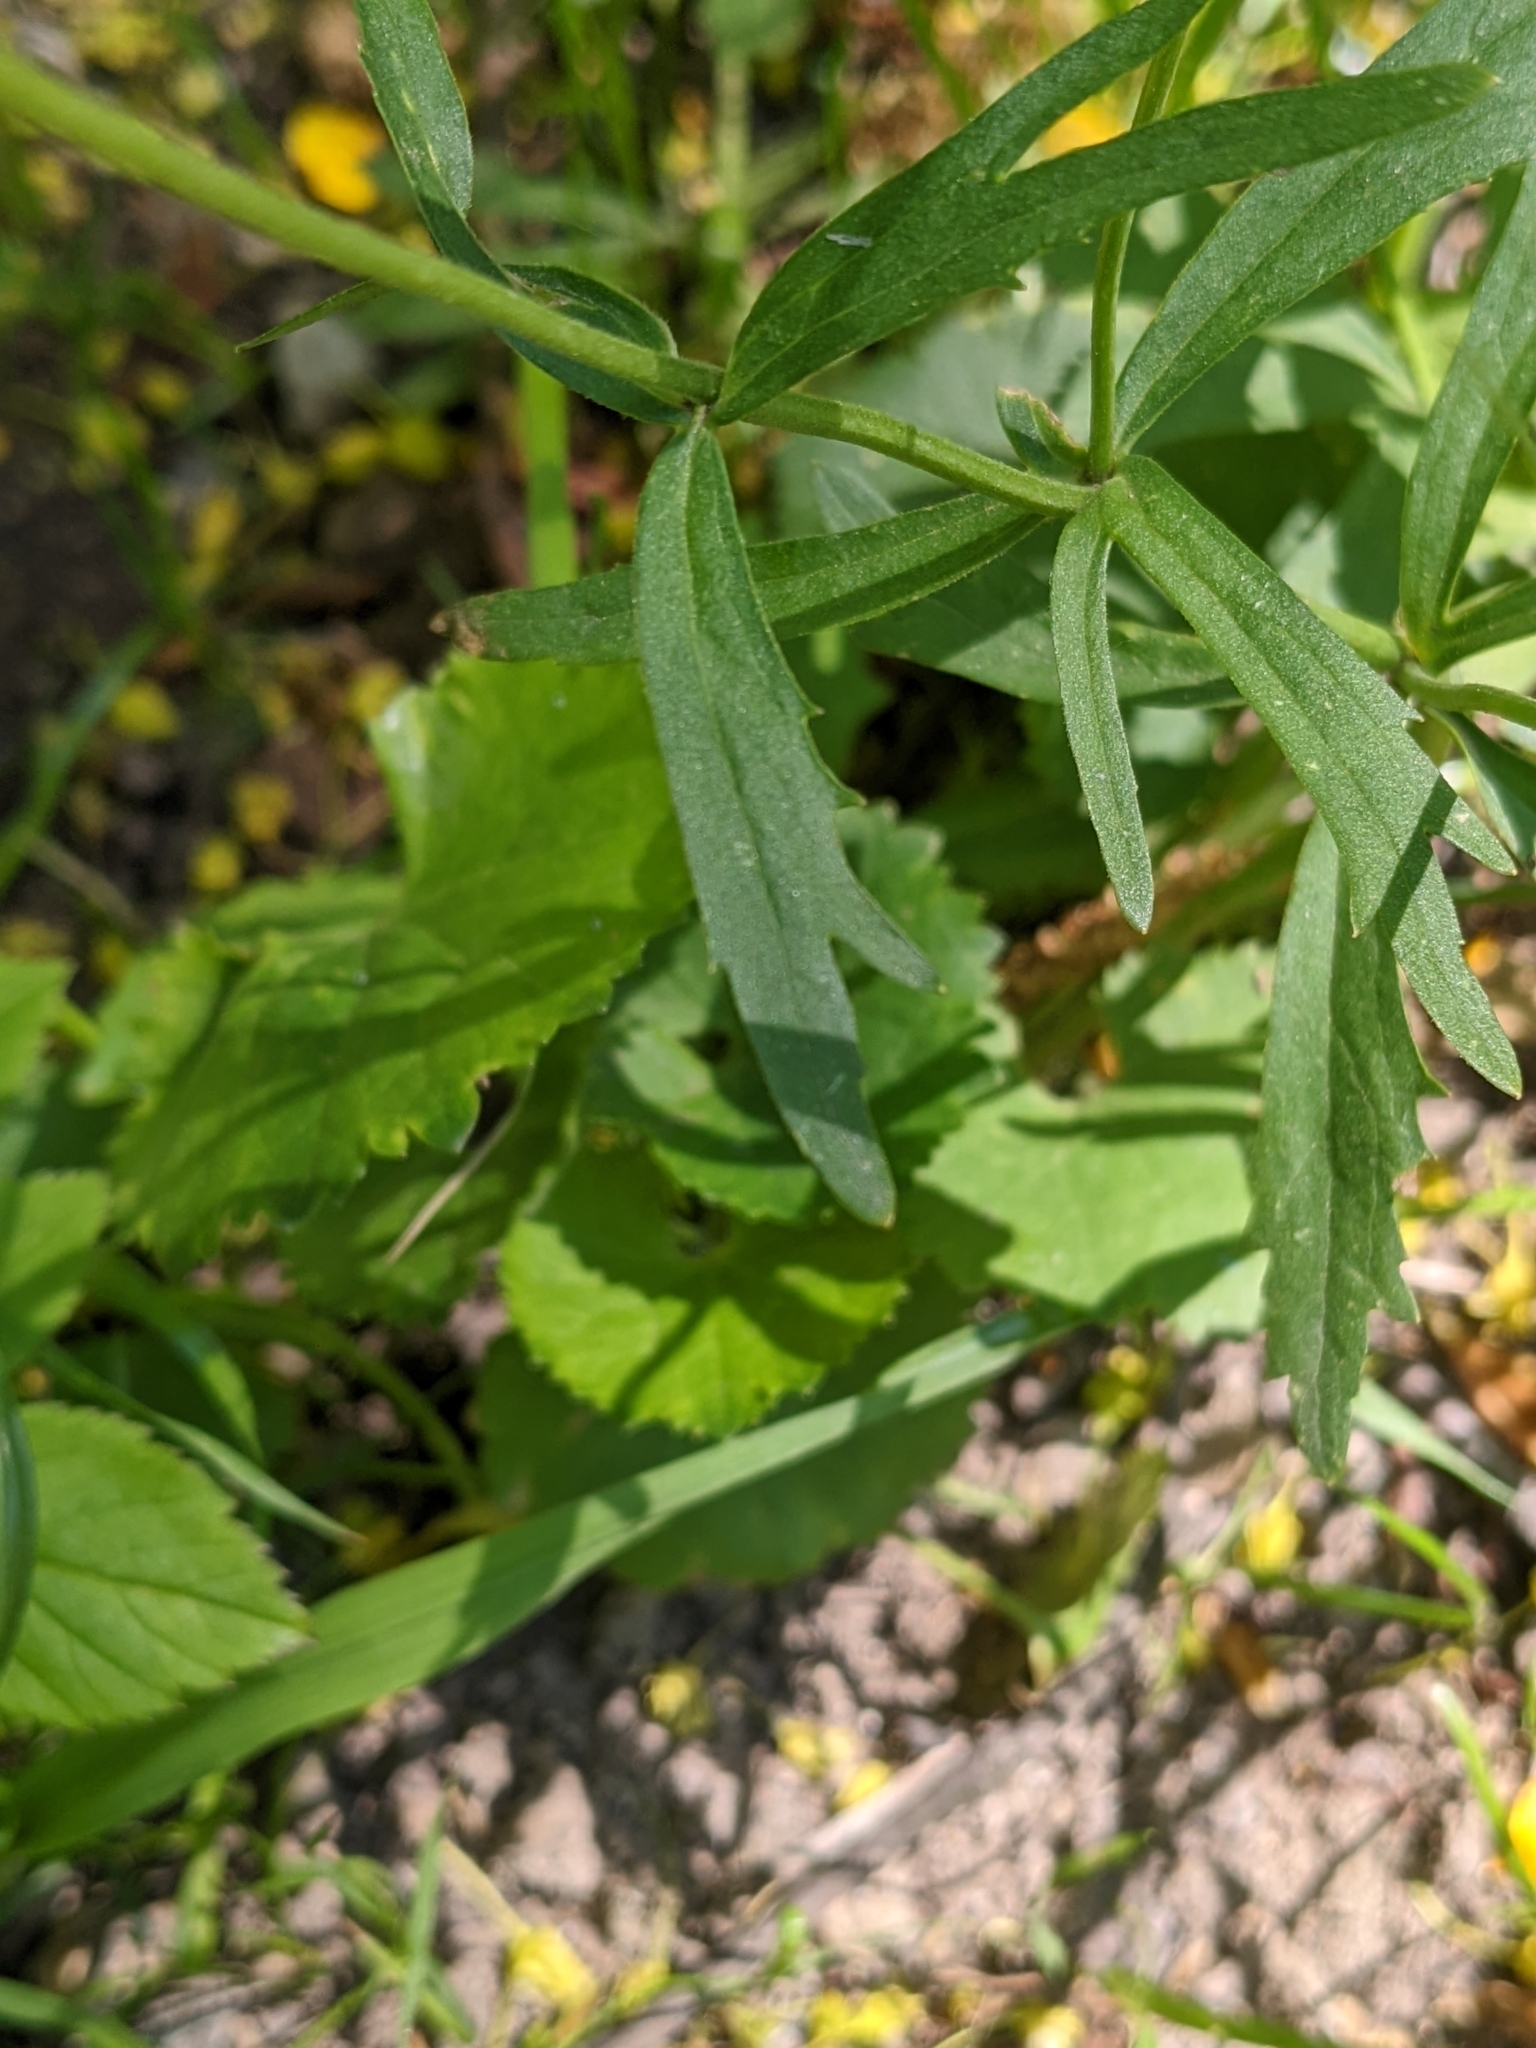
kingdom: Plantae
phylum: Tracheophyta
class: Magnoliopsida
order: Ranunculales
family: Ranunculaceae
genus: Ranunculus
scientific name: Ranunculus cassubicus
